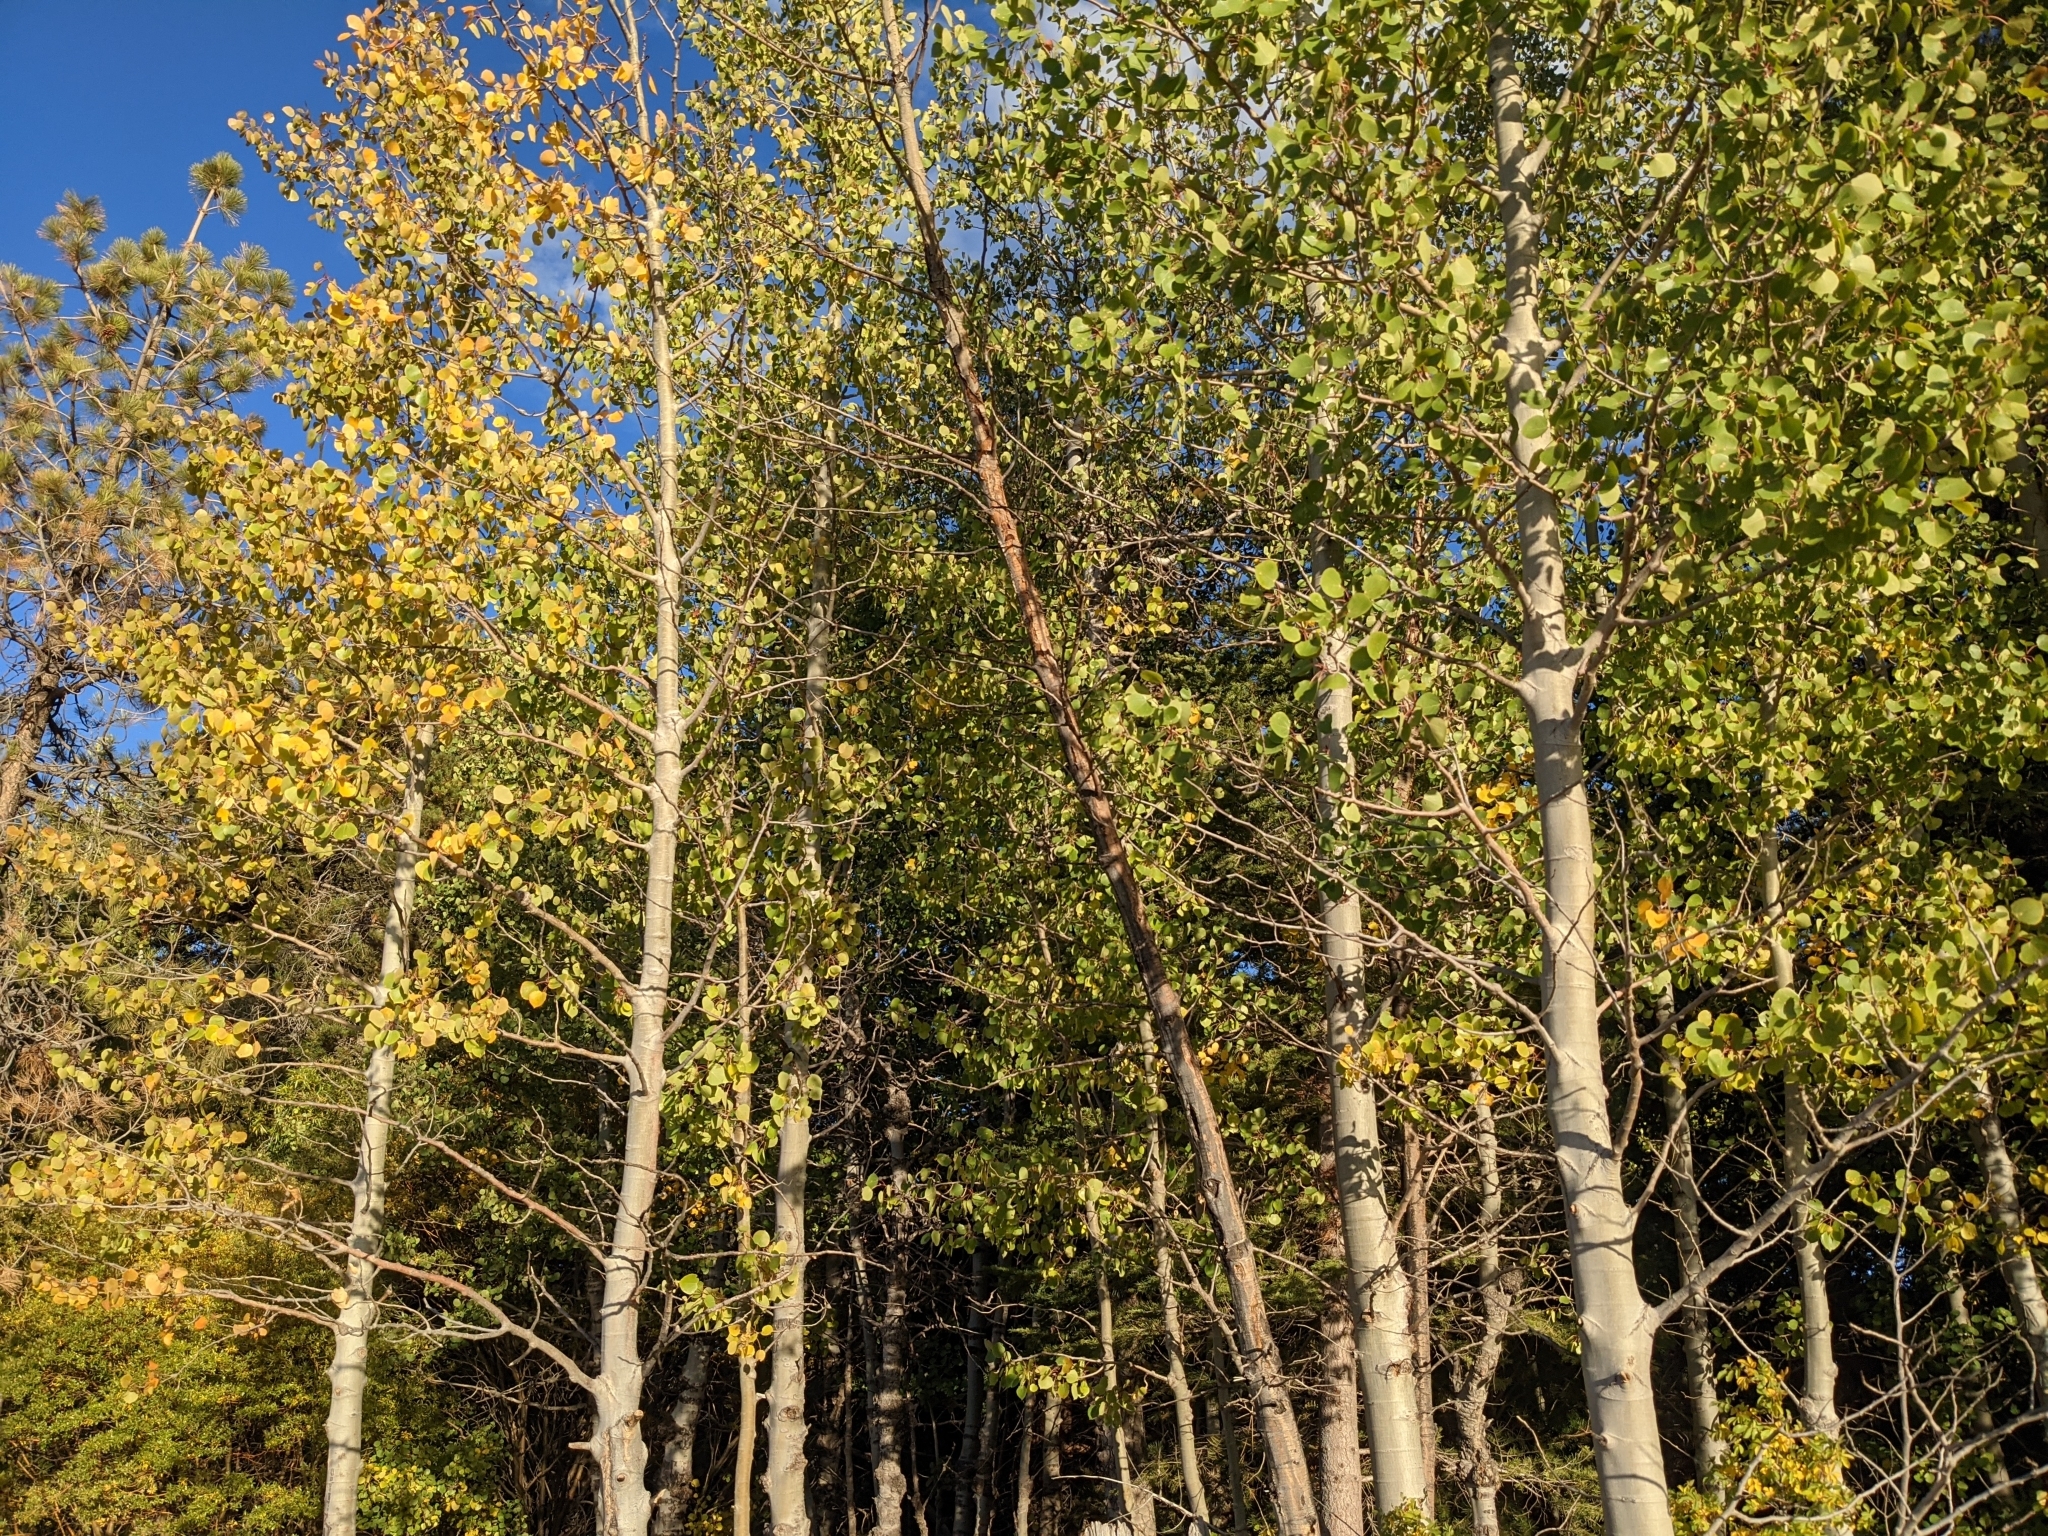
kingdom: Plantae
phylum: Tracheophyta
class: Magnoliopsida
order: Malpighiales
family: Salicaceae
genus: Populus
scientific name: Populus tremuloides
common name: Quaking aspen
